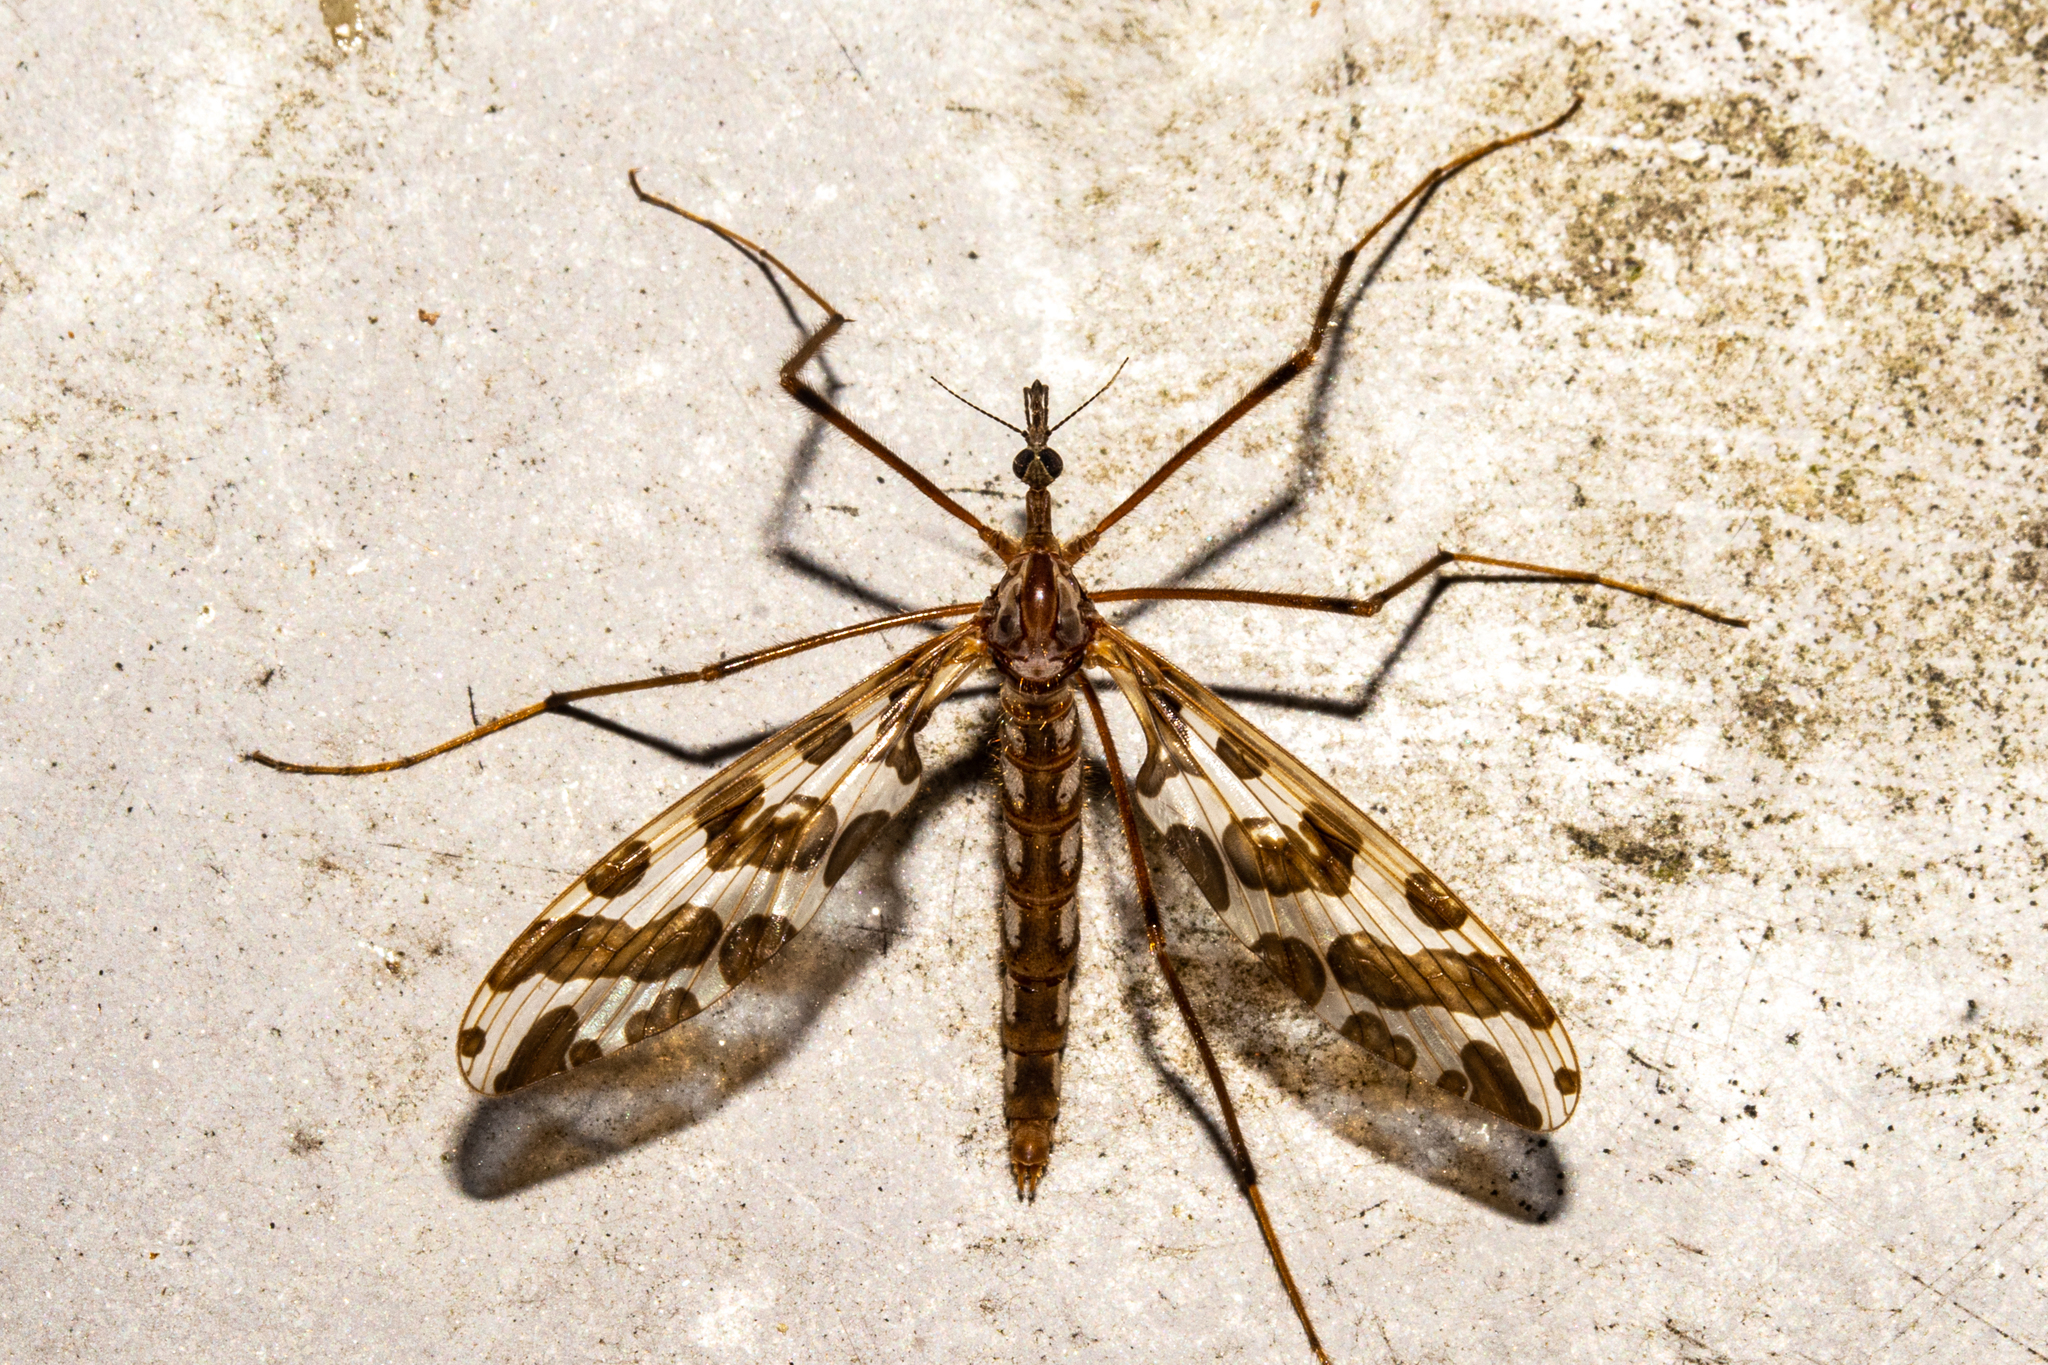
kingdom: Animalia
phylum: Arthropoda
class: Insecta
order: Diptera
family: Tanyderidae
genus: Tanyderus
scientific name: Tanyderus forcipatus
